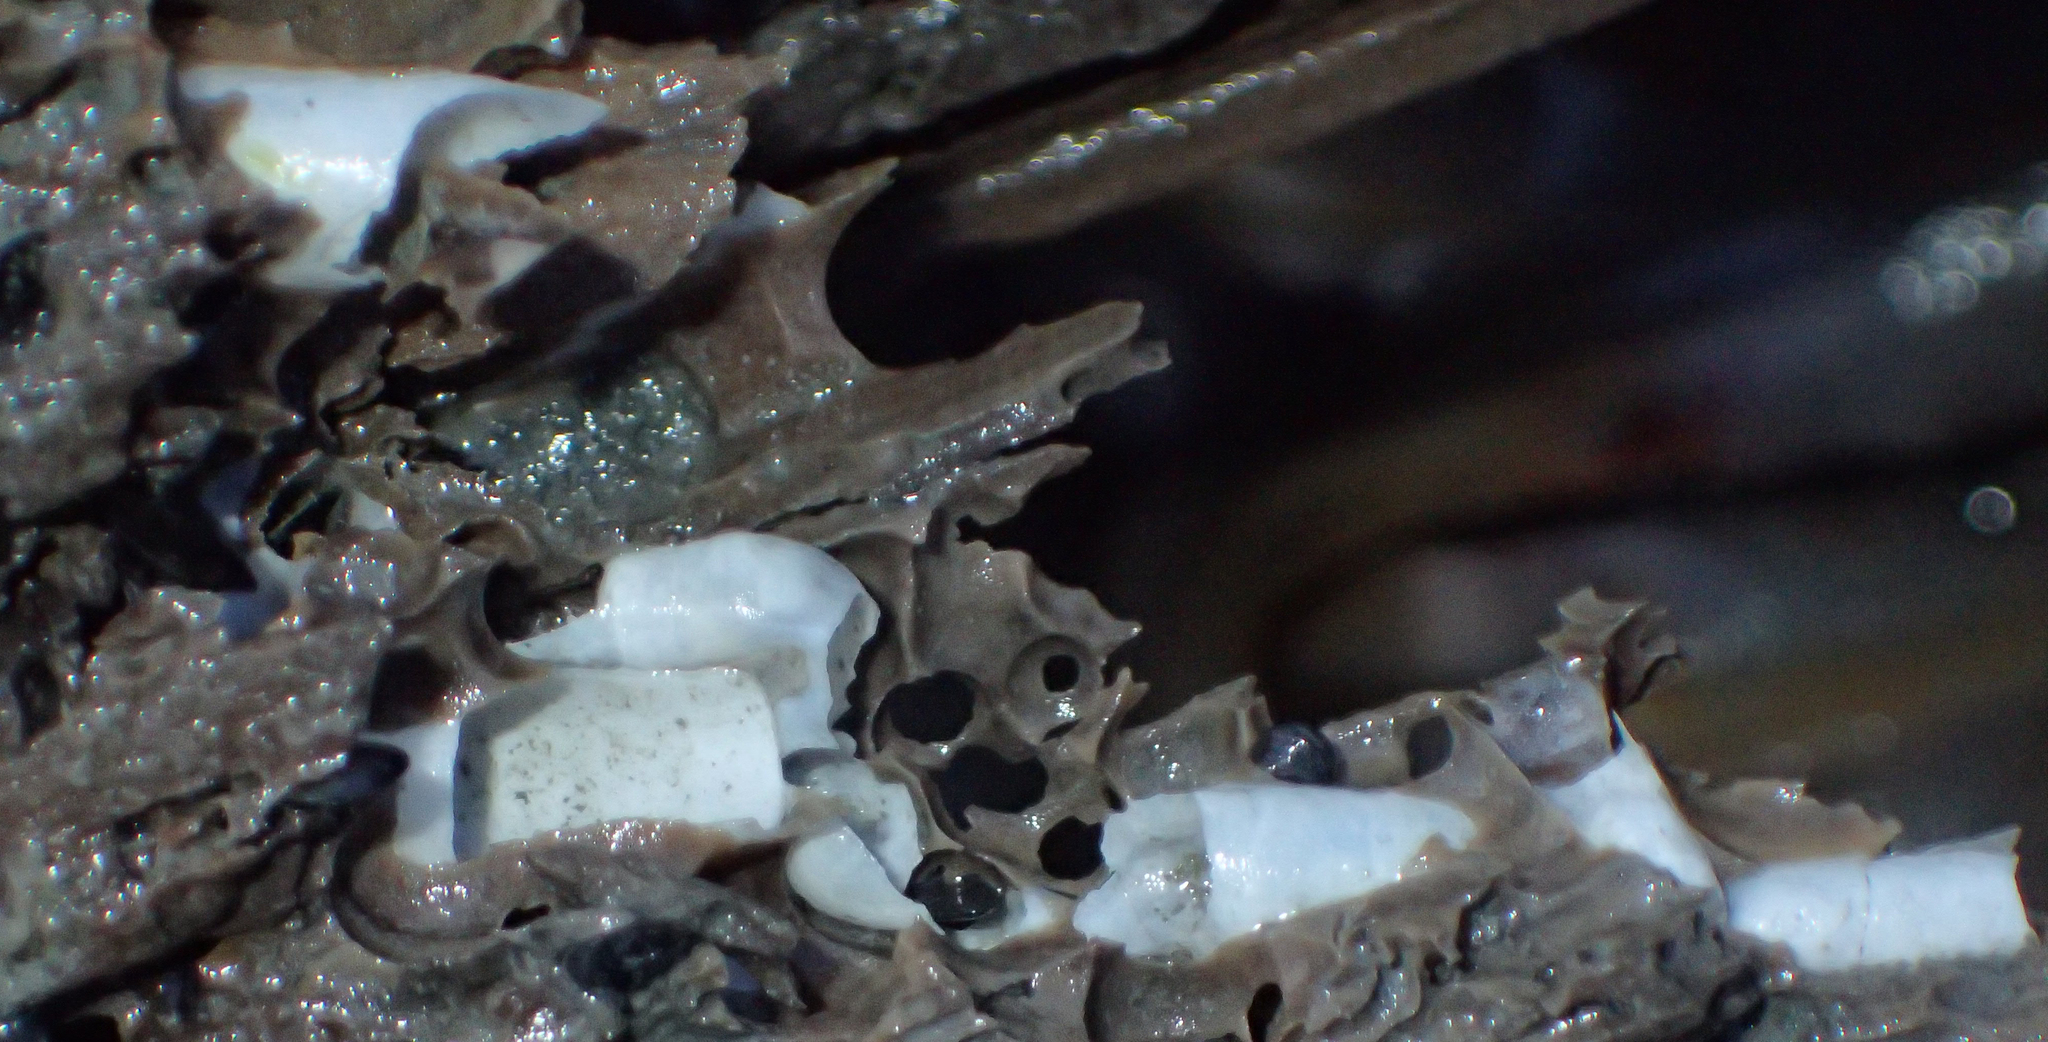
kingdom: Animalia
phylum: Mollusca
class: Bivalvia
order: Myida
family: Teredinidae
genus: Bankia
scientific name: Bankia setacea
